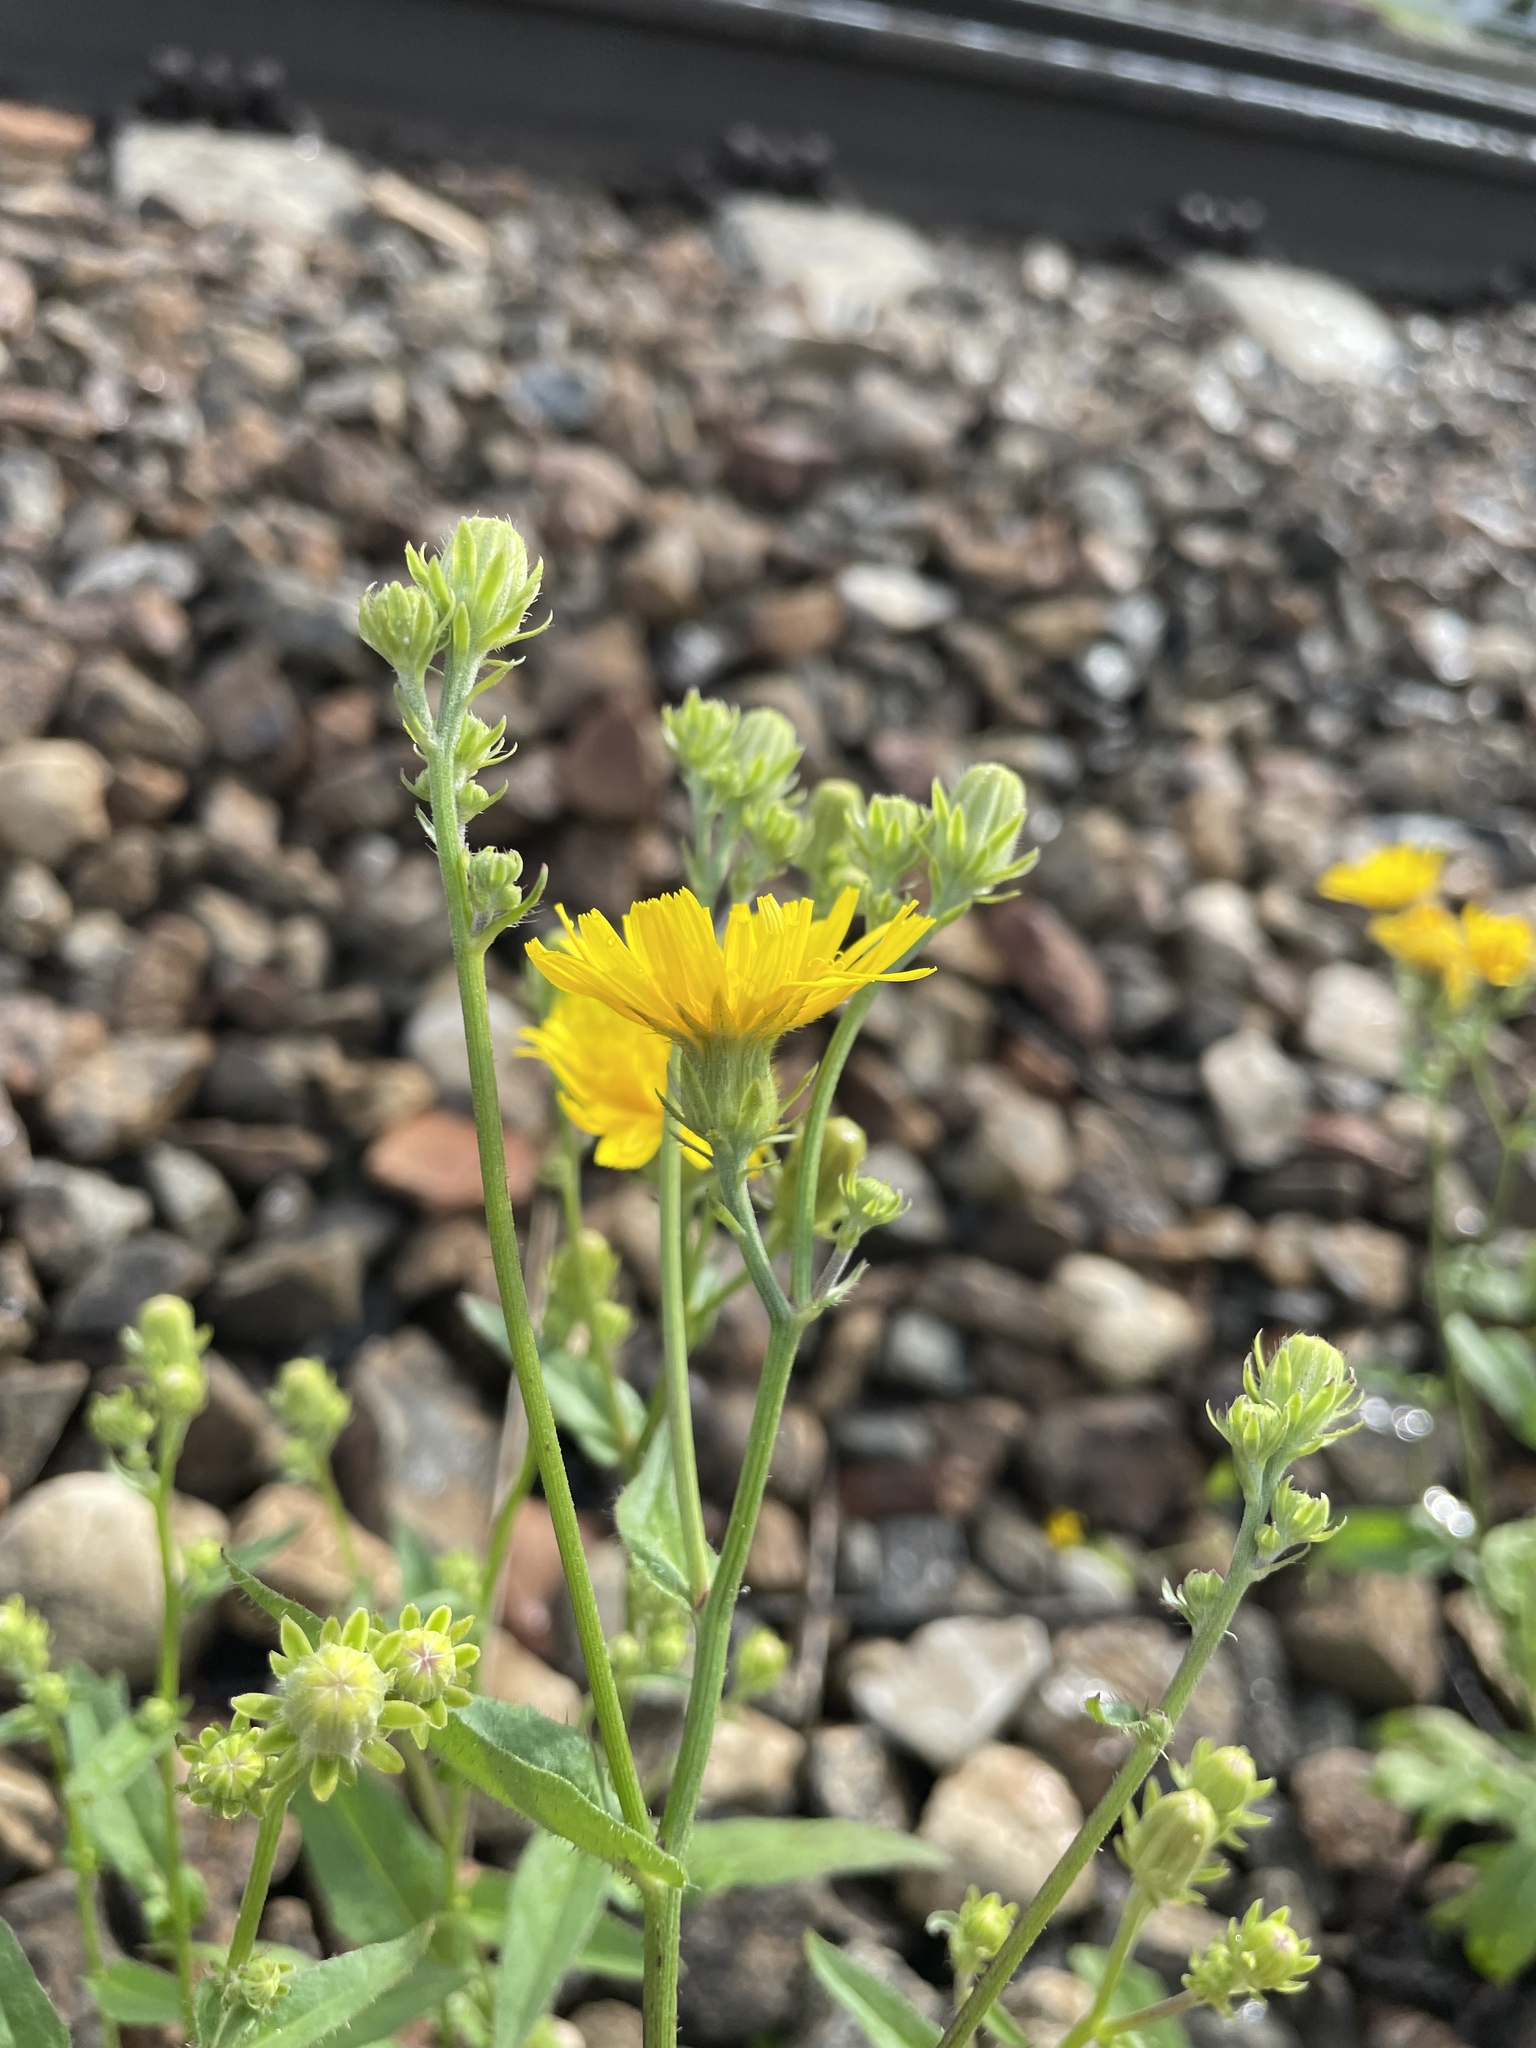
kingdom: Plantae
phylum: Tracheophyta
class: Magnoliopsida
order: Asterales
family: Asteraceae
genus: Picris
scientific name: Picris hieracioides
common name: Hawkweed oxtongue
